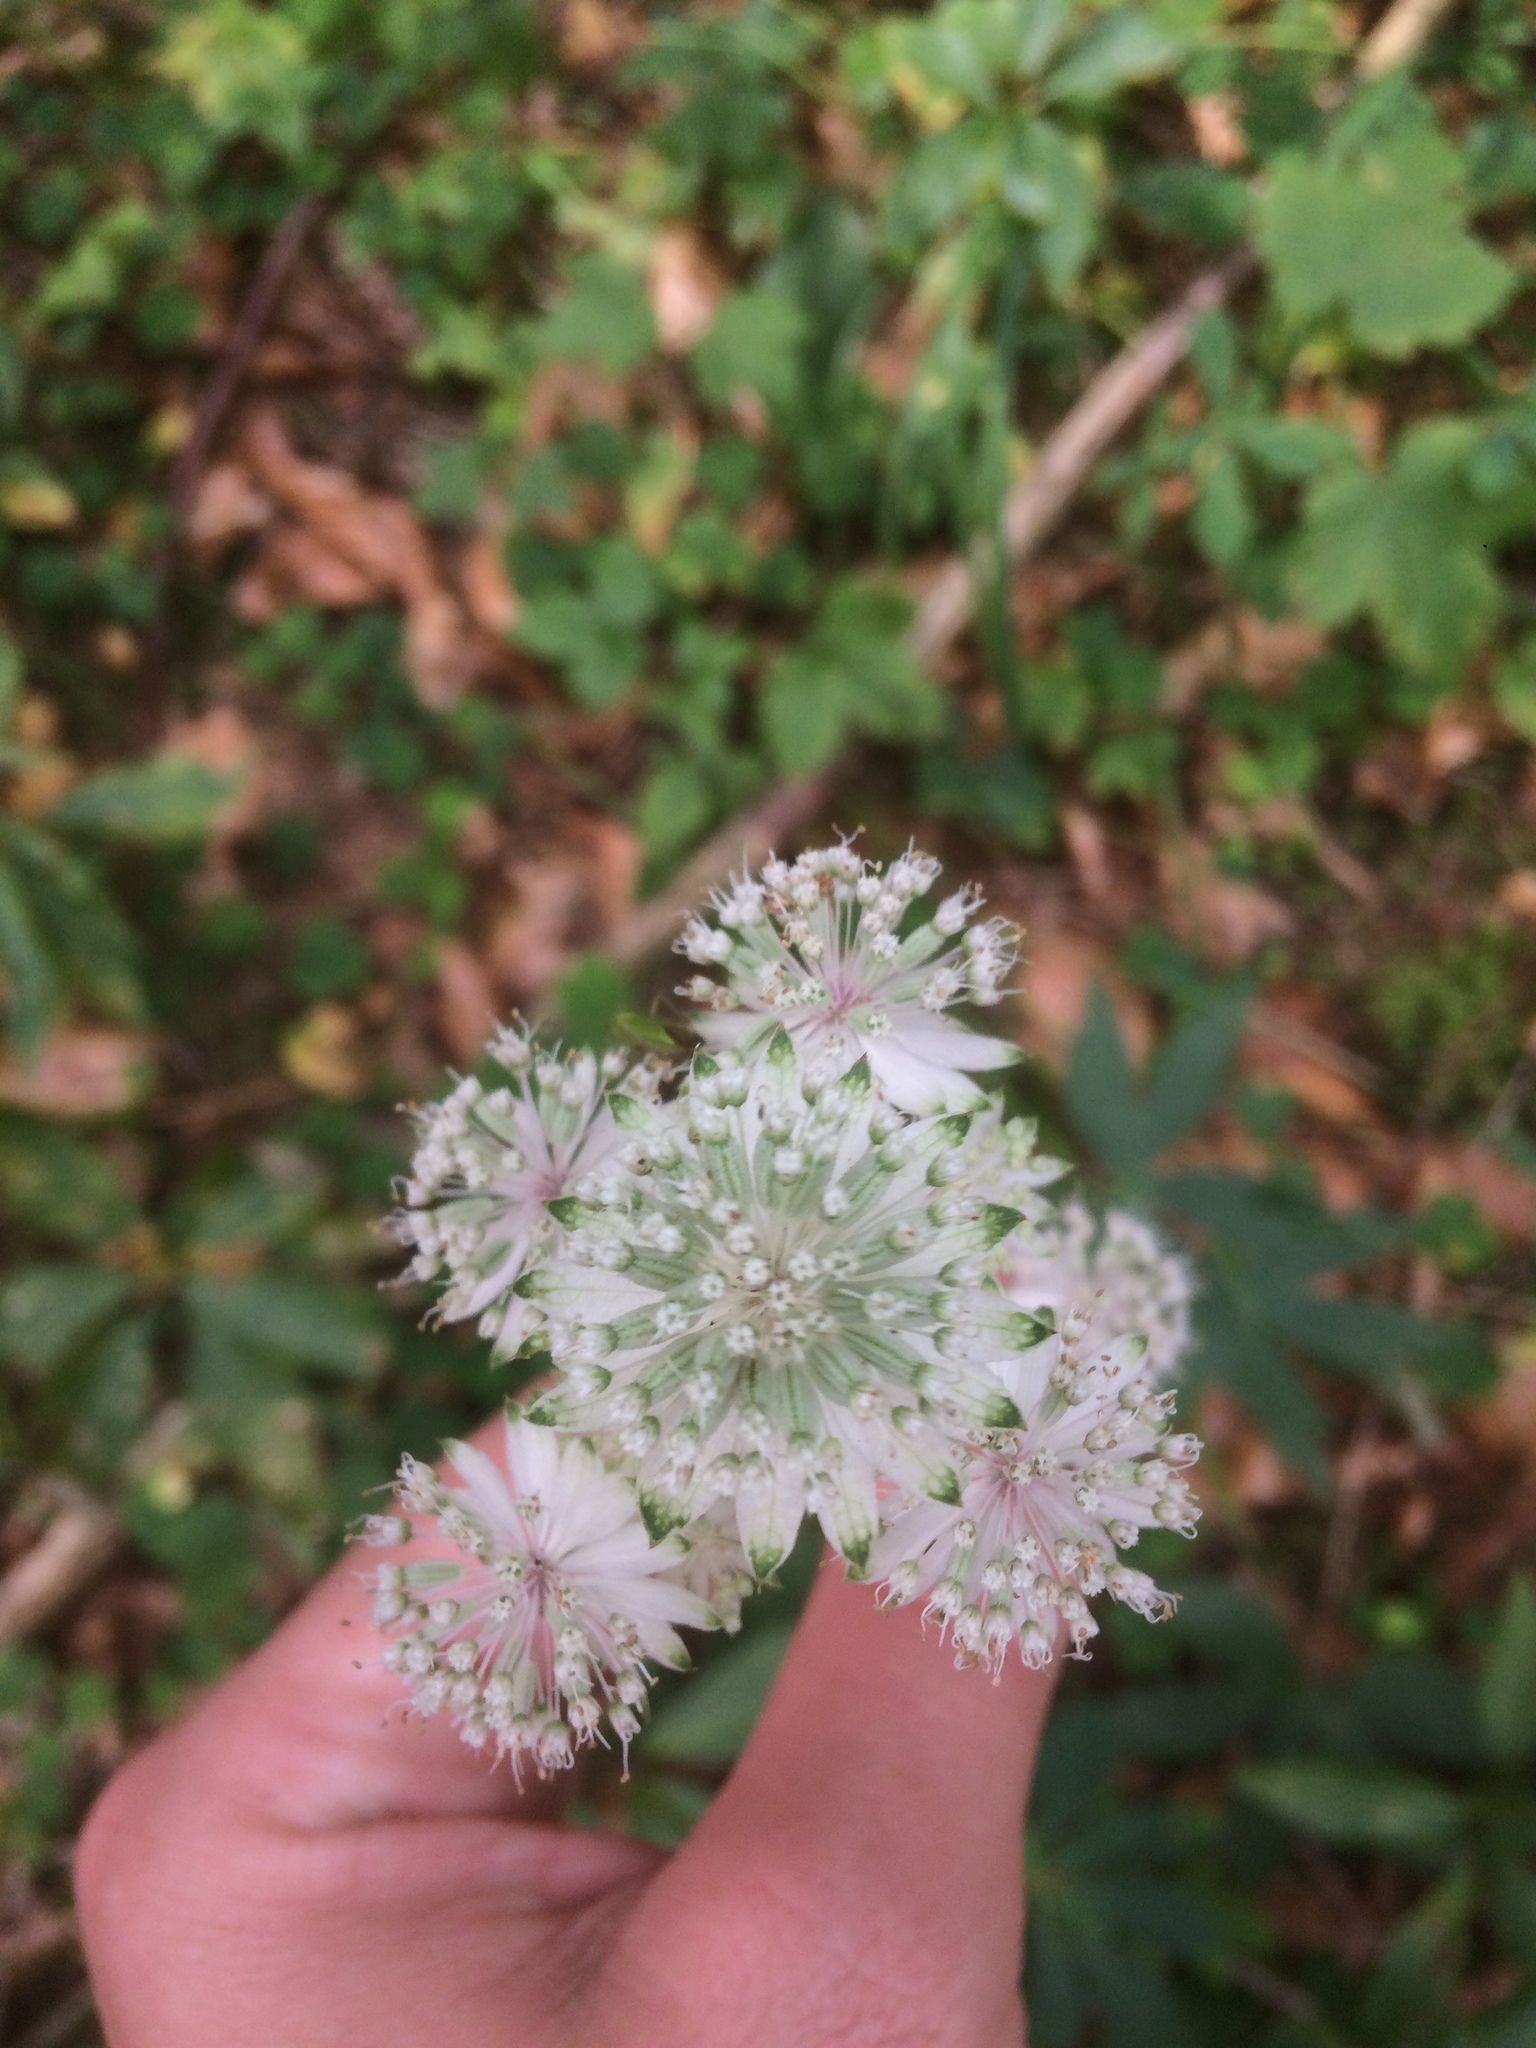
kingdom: Plantae
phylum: Tracheophyta
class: Magnoliopsida
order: Apiales
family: Apiaceae
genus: Astrantia
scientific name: Astrantia major
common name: Greater masterwort
